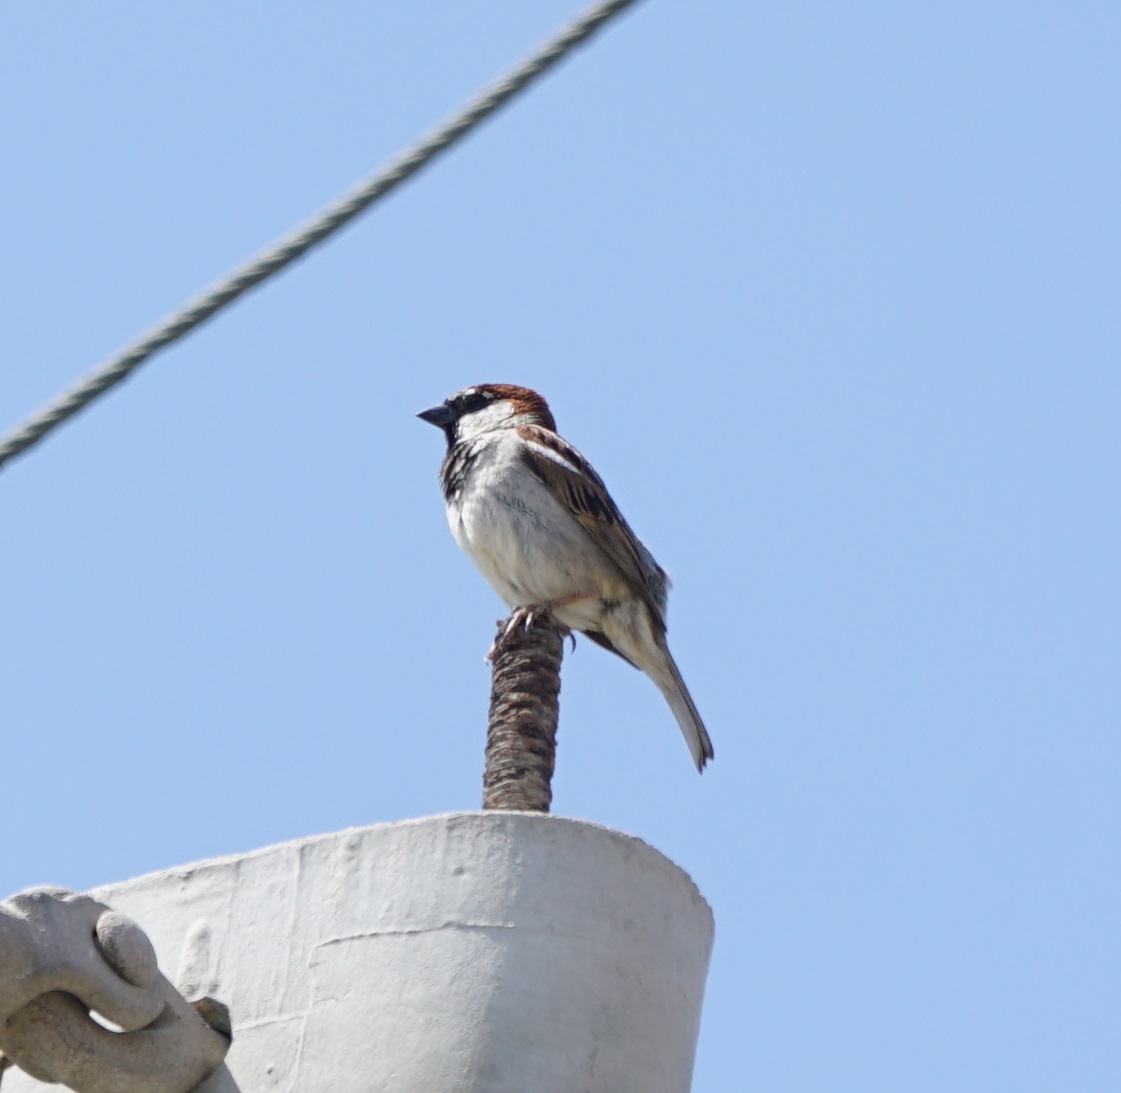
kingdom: Animalia
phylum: Chordata
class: Aves
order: Passeriformes
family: Passeridae
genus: Passer
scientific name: Passer domesticus
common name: House sparrow
